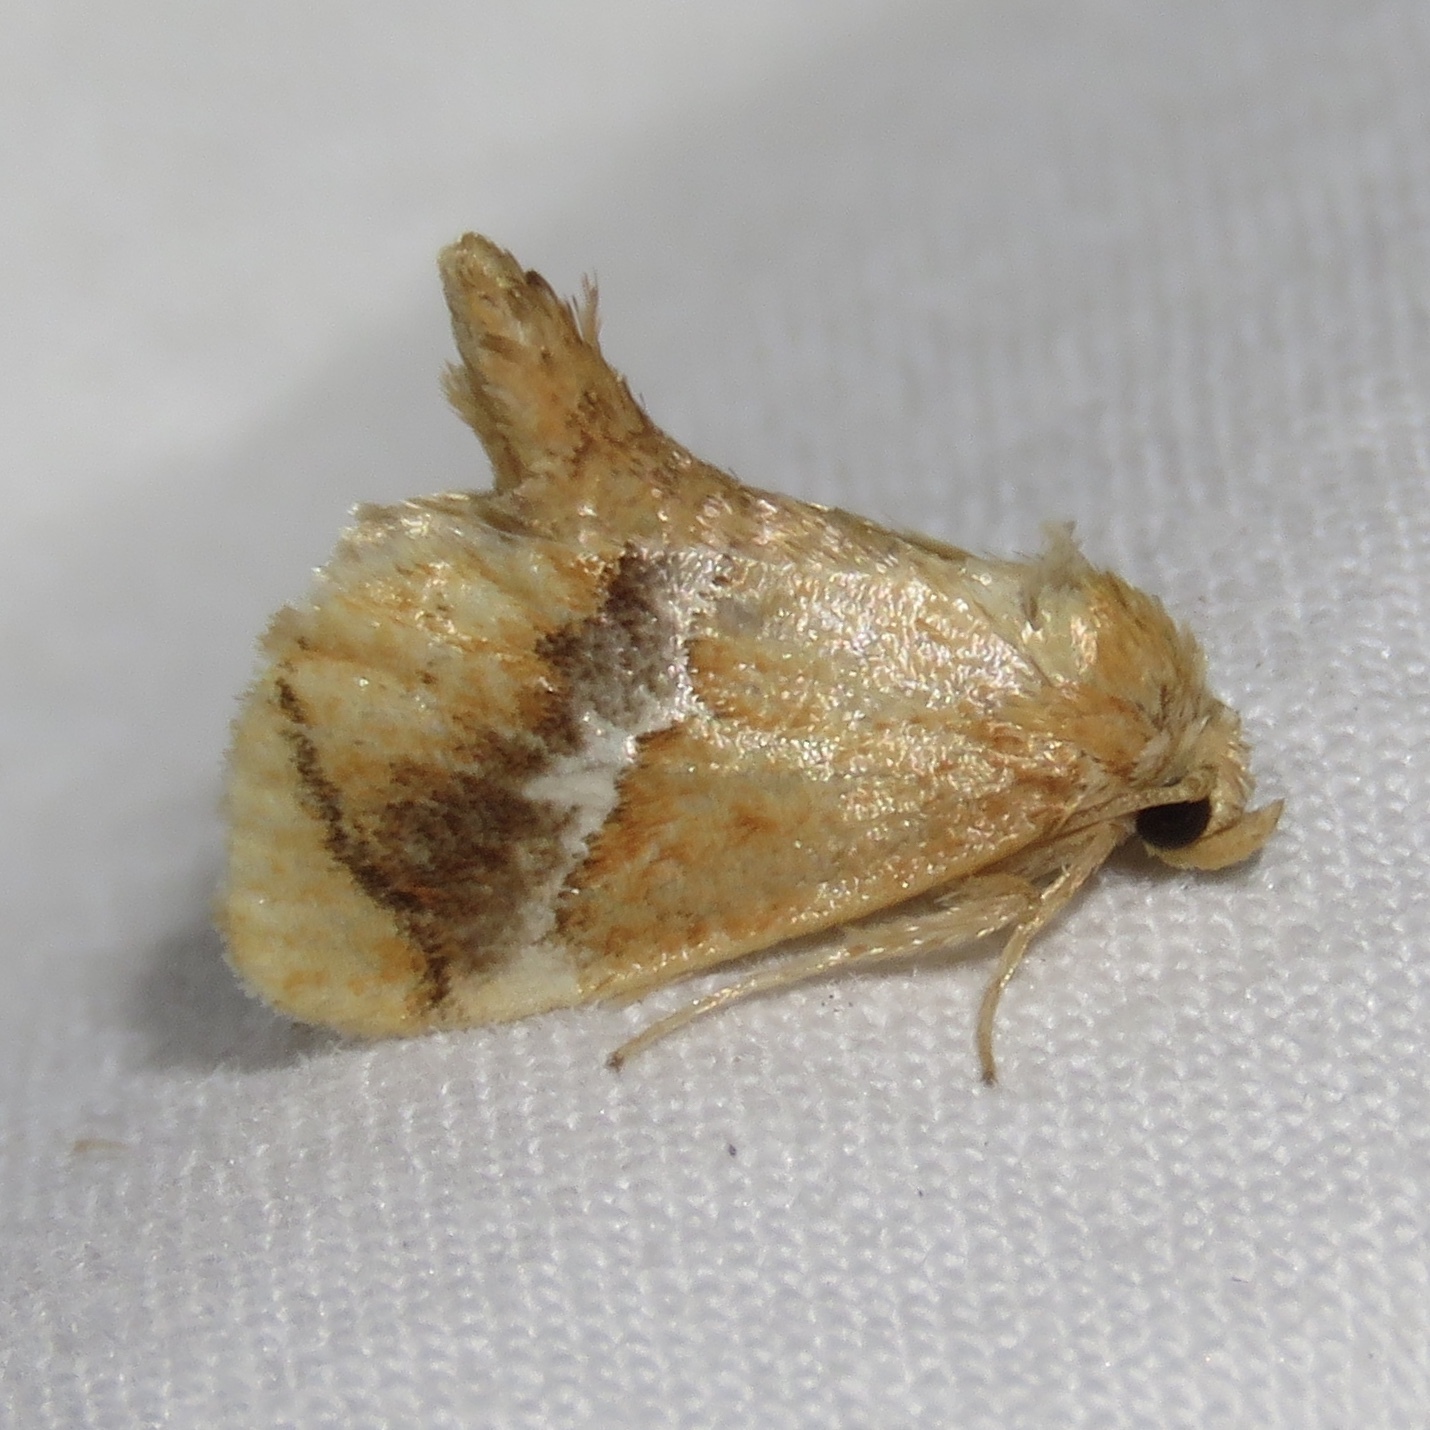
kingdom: Animalia
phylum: Arthropoda
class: Insecta
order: Lepidoptera
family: Limacodidae
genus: Lithacodes
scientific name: Lithacodes fasciola
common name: Yellow-shouldered slug moth
